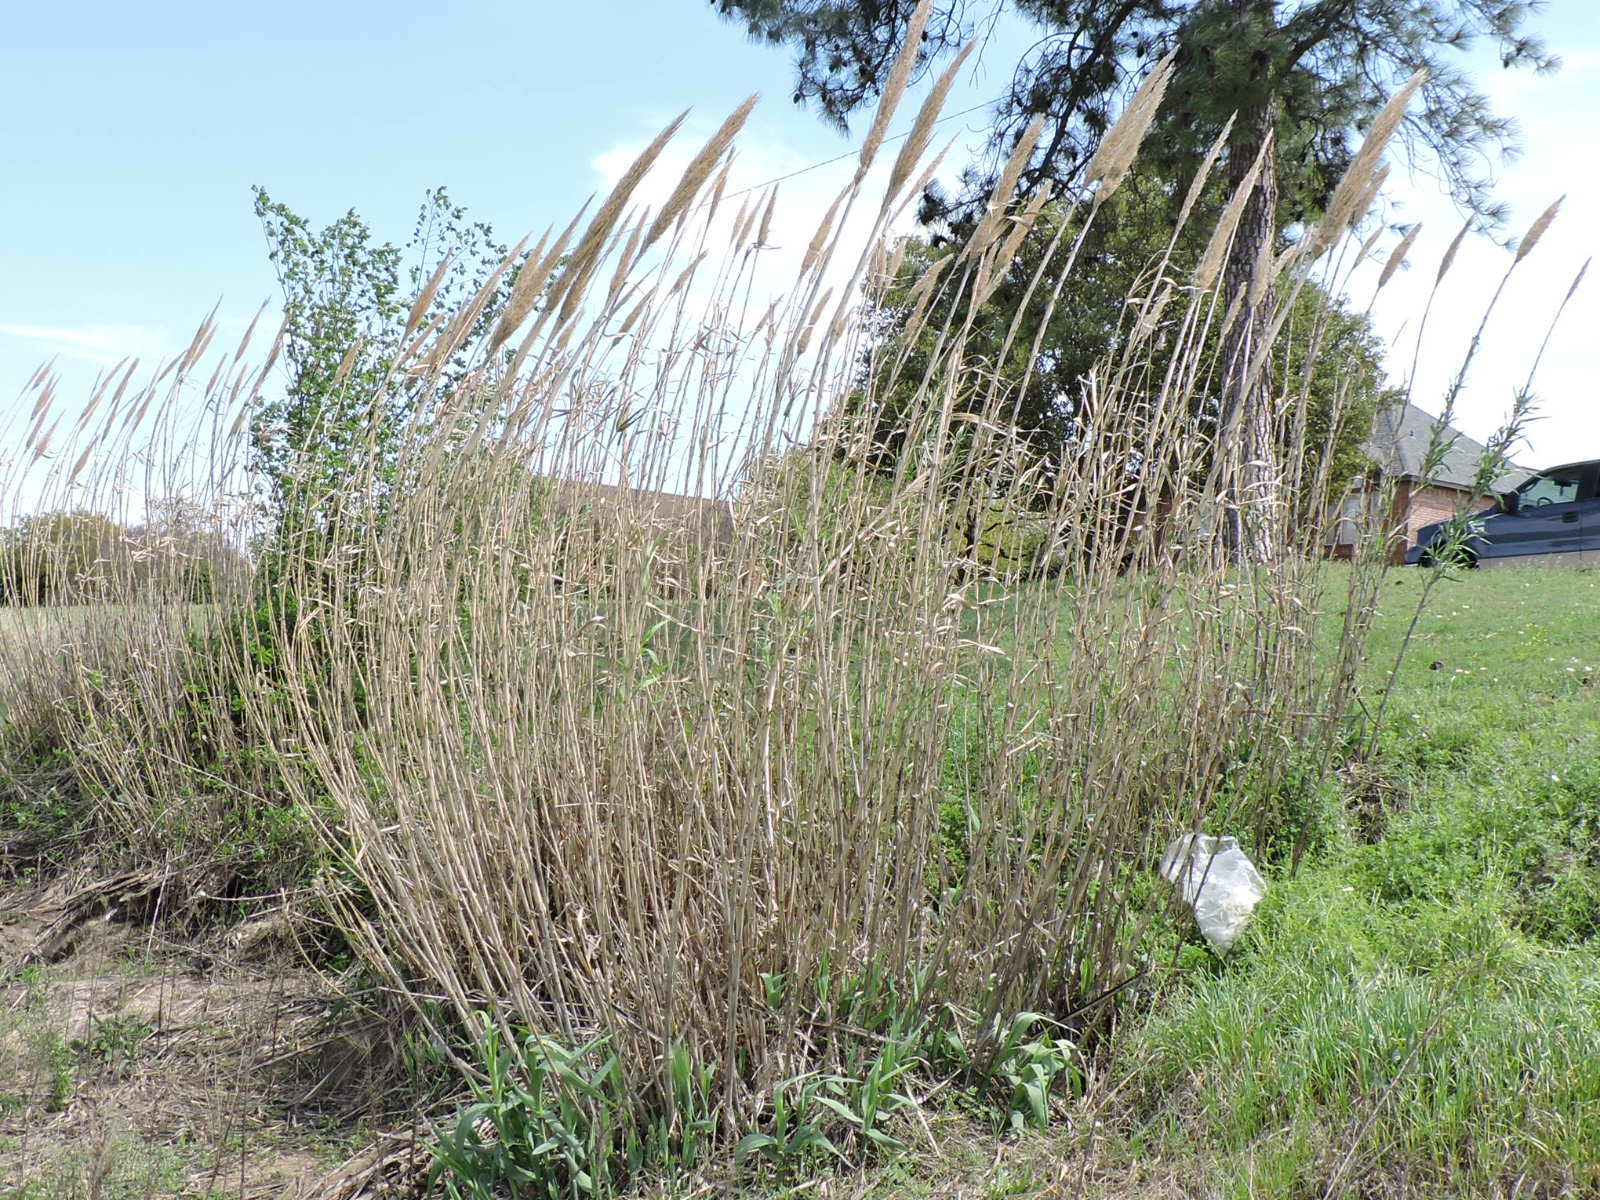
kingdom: Plantae
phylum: Tracheophyta
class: Liliopsida
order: Poales
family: Poaceae
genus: Arundo
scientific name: Arundo donax
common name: Giant reed
